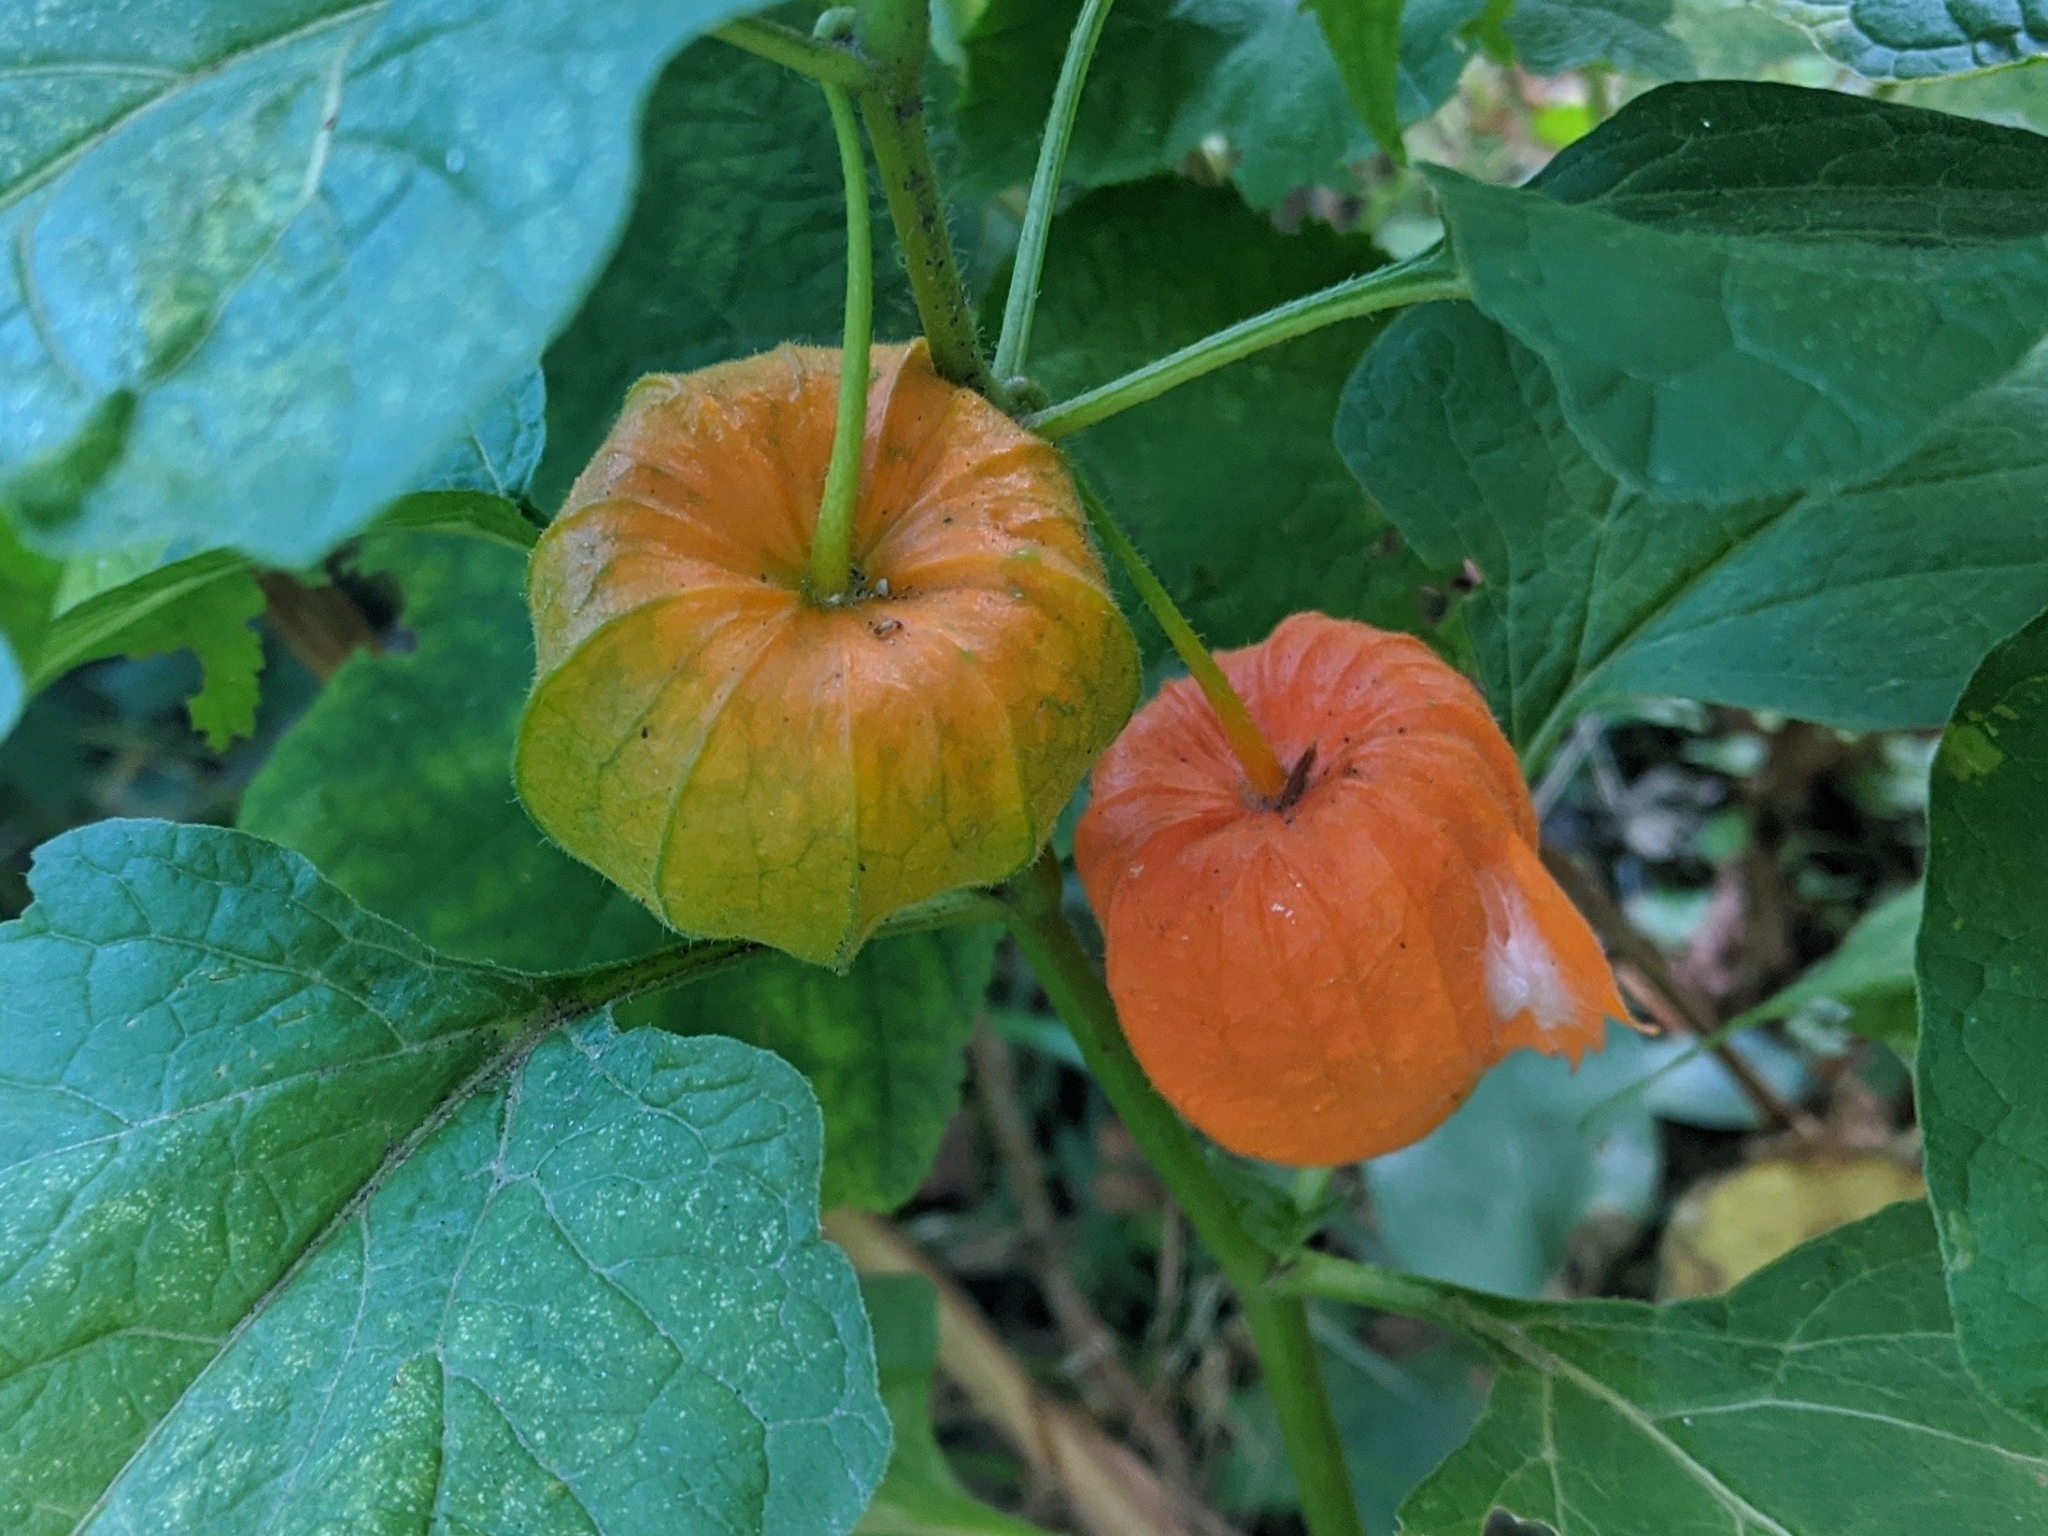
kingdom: Plantae
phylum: Tracheophyta
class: Magnoliopsida
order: Solanales
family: Solanaceae
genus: Alkekengi
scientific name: Alkekengi officinarum
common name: Japanese-lantern
